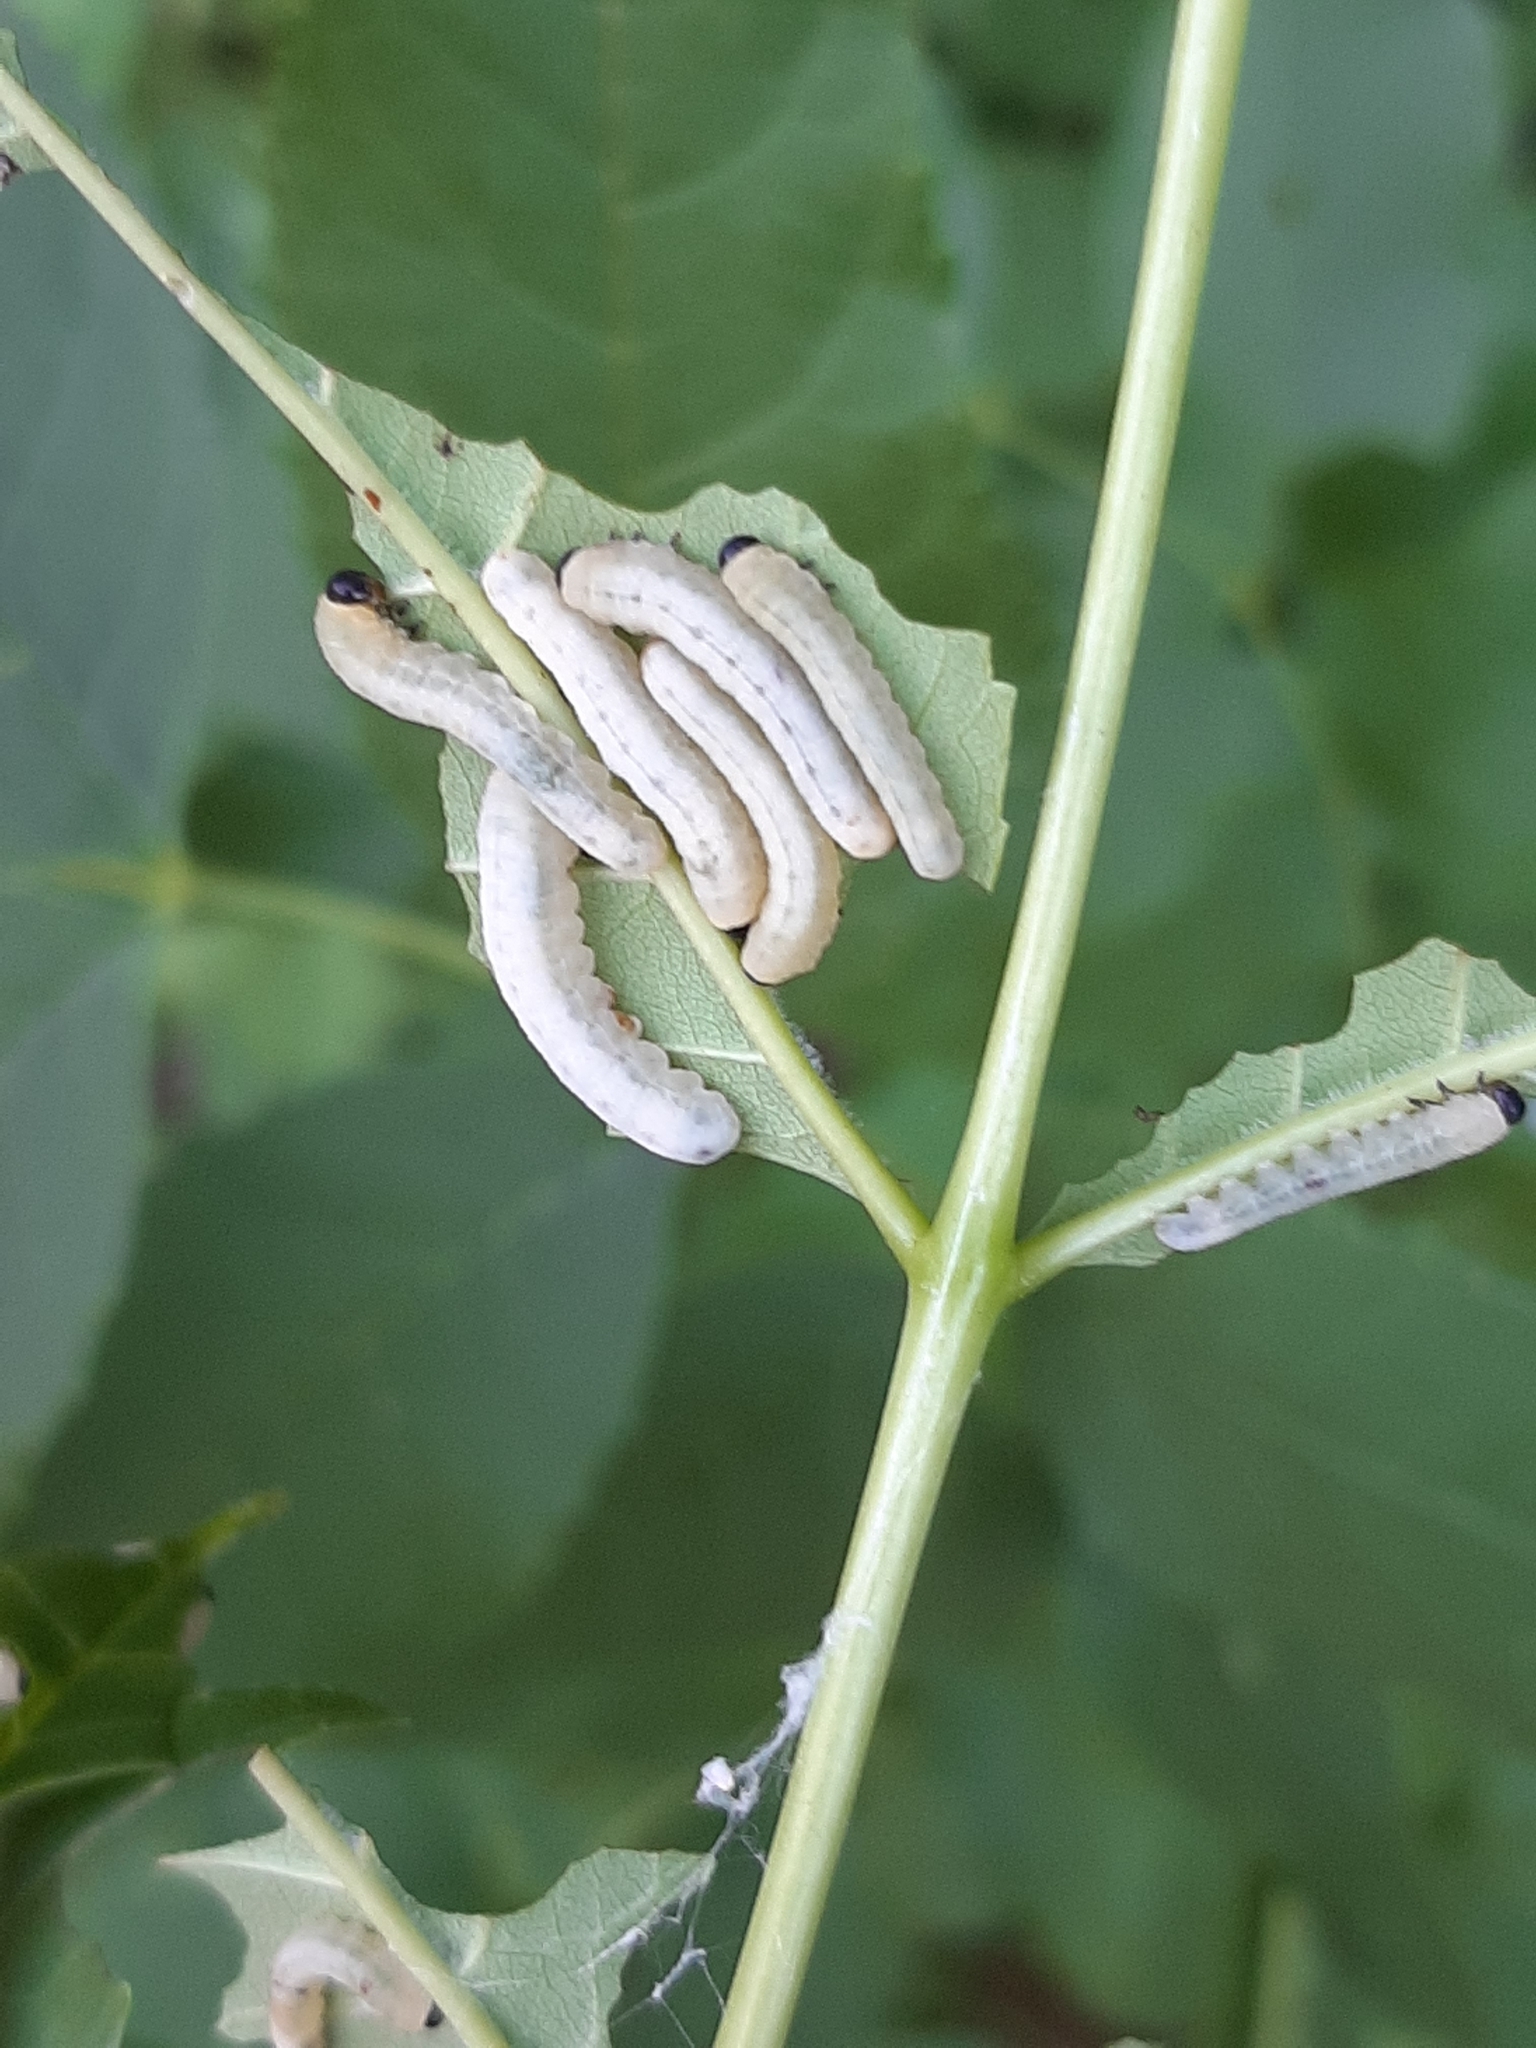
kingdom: Animalia
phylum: Arthropoda
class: Insecta
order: Hymenoptera
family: Tenthredinidae
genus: Tethida
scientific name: Tethida barda
